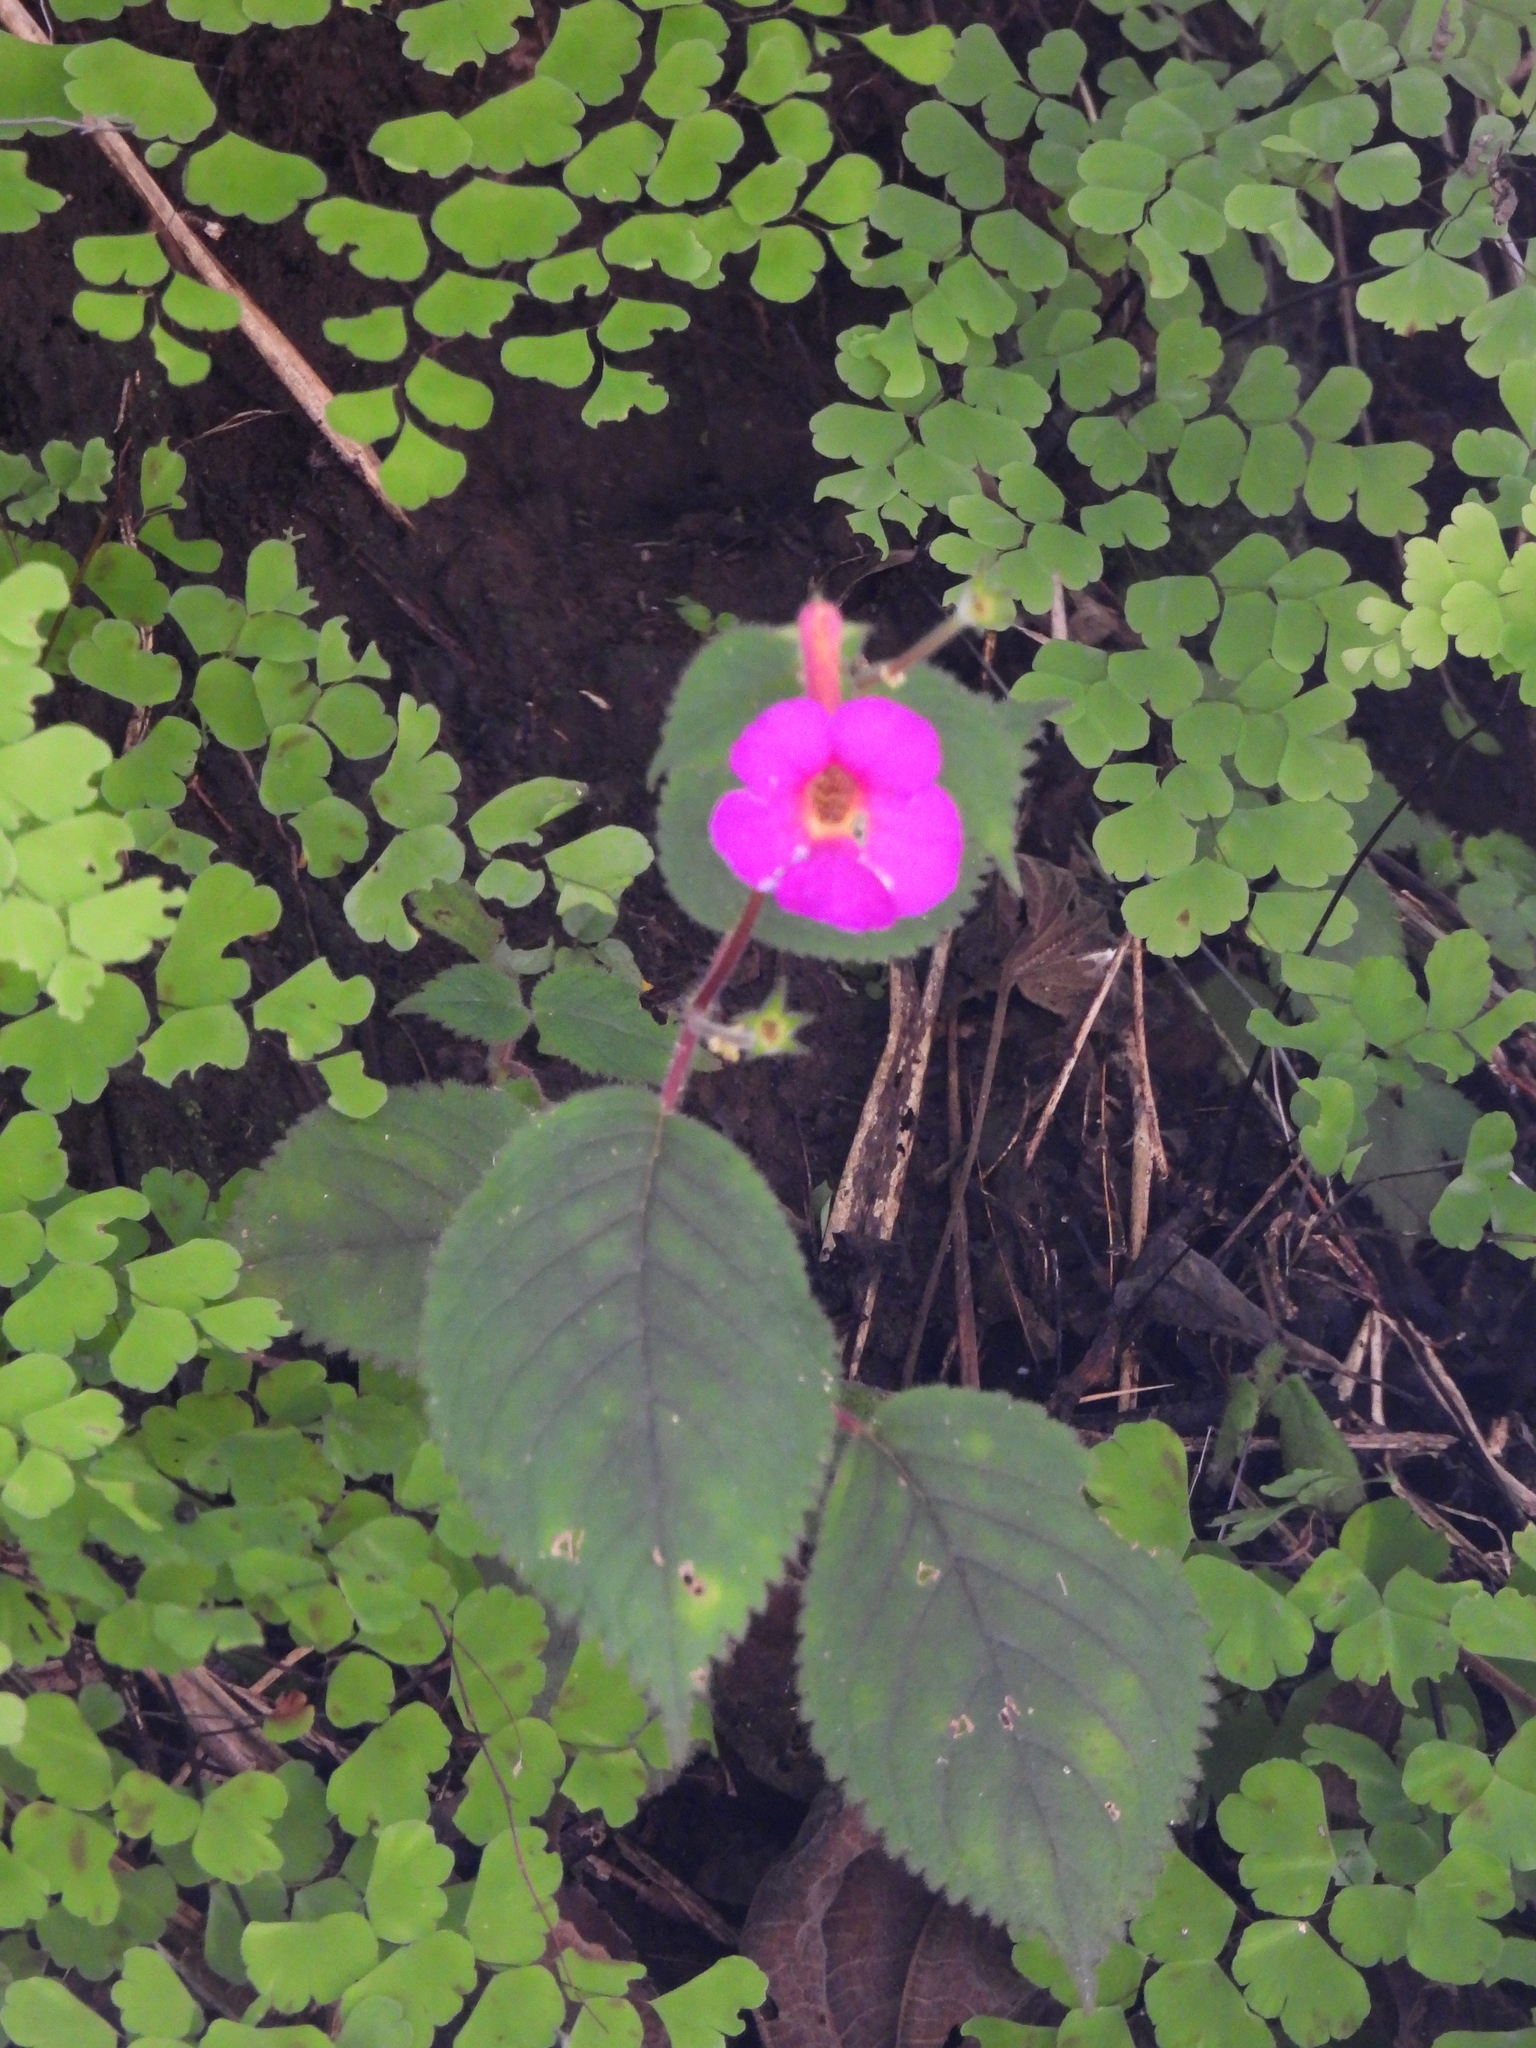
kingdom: Plantae
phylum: Tracheophyta
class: Magnoliopsida
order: Lamiales
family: Gesneriaceae
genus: Achimenes
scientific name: Achimenes skinneri
